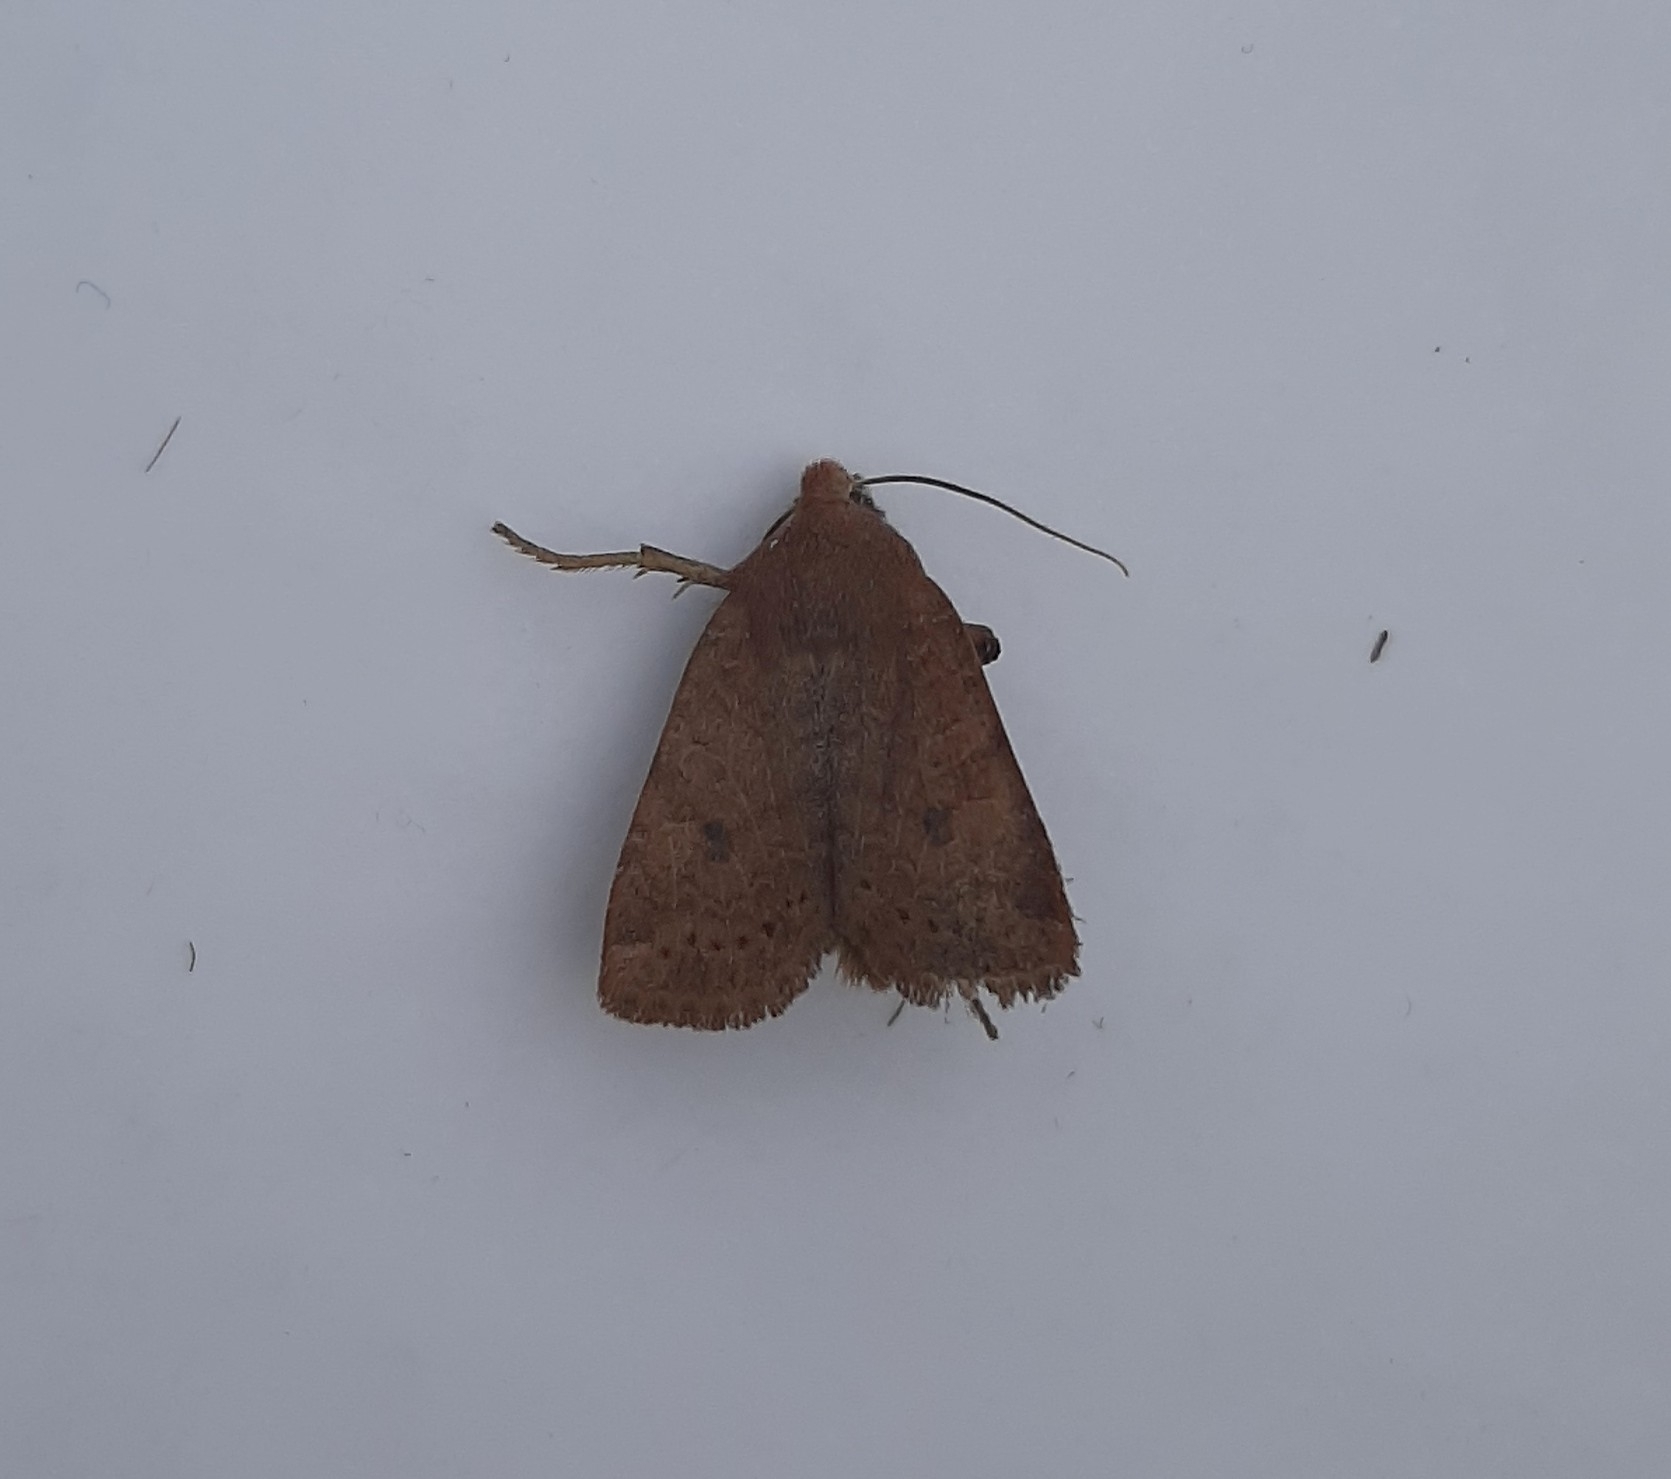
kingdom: Animalia
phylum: Arthropoda
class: Insecta
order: Lepidoptera
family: Noctuidae
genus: Conistra
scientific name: Conistra vaccinii
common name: Chestnut
